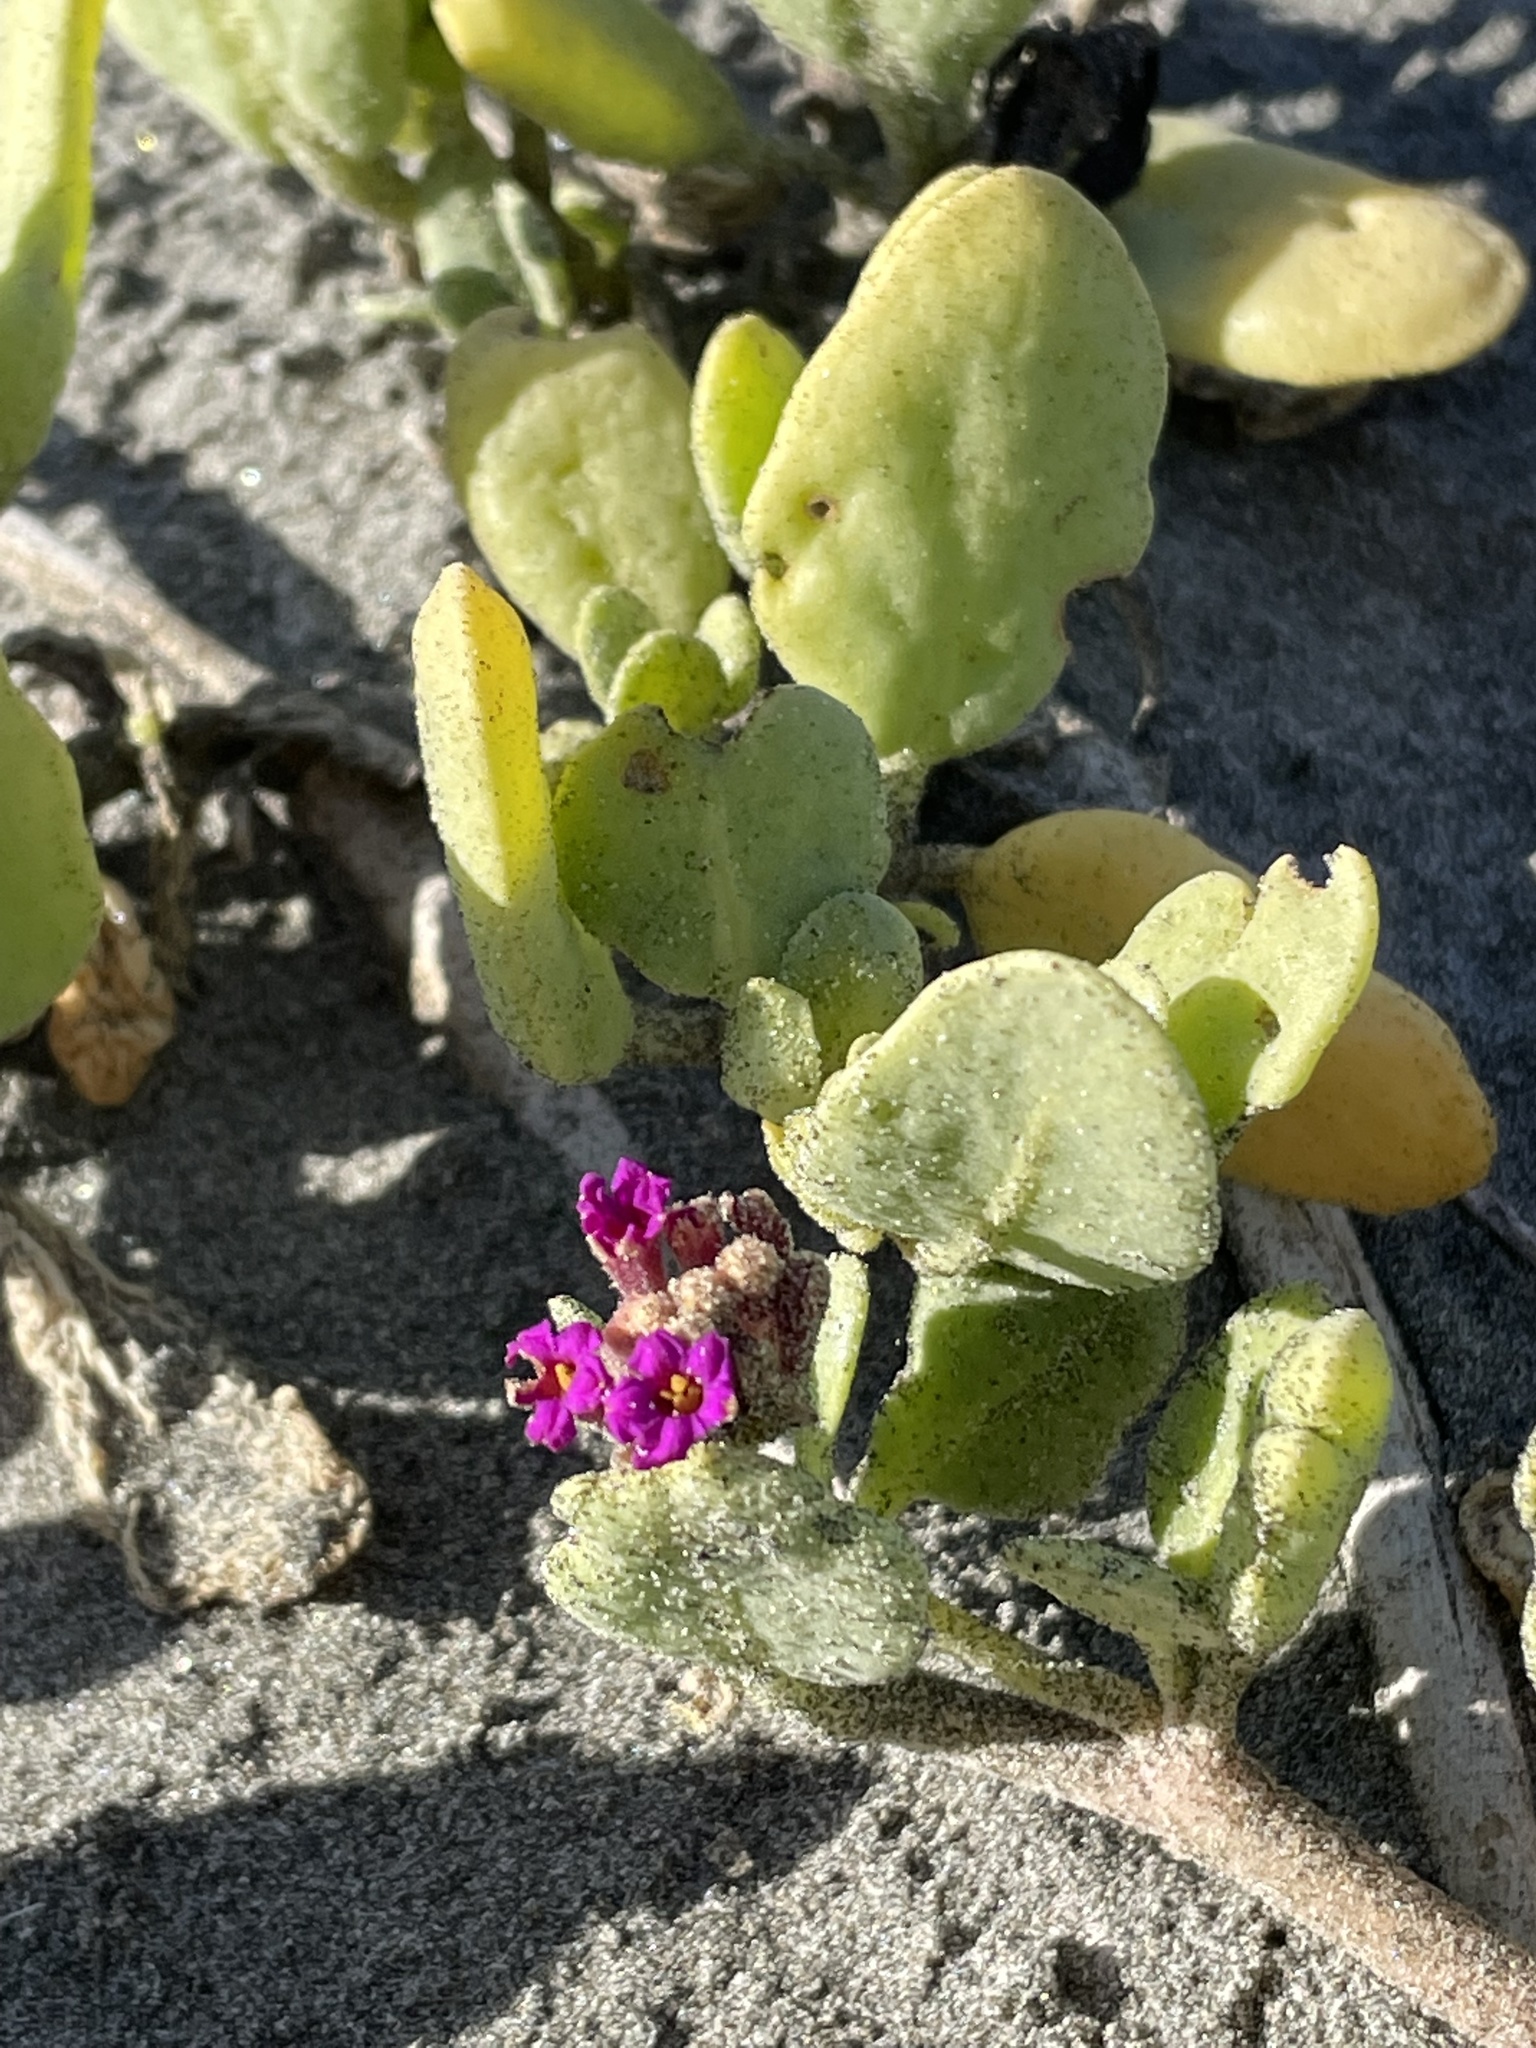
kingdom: Plantae
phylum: Tracheophyta
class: Magnoliopsida
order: Caryophyllales
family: Nyctaginaceae
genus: Abronia
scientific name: Abronia maritima
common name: Red sand-verbena
